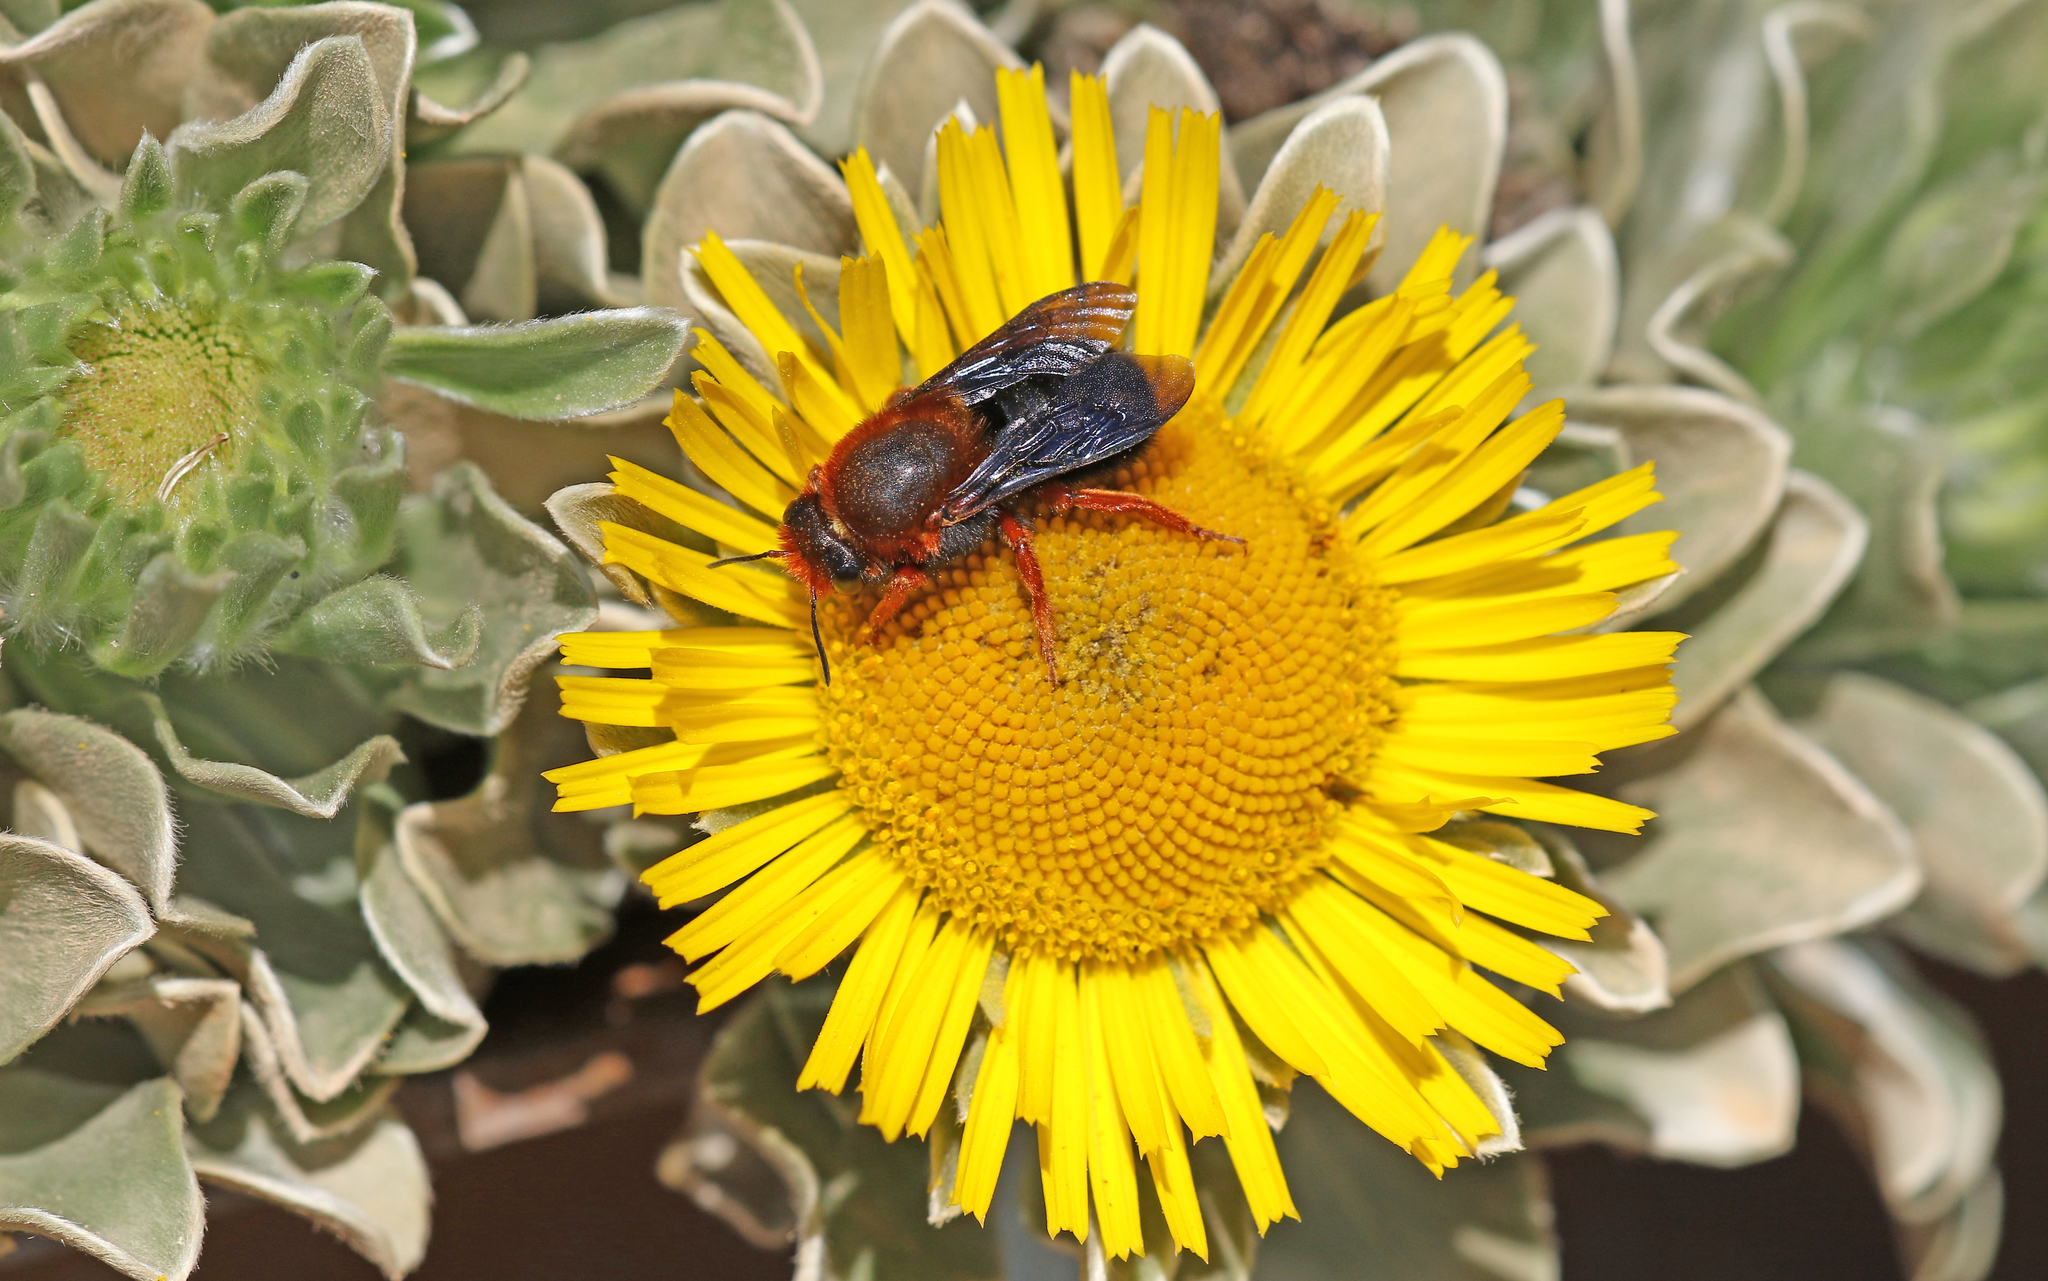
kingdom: Animalia
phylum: Arthropoda
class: Insecta
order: Hymenoptera
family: Megachilidae
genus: Megachile
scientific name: Megachile sicula
